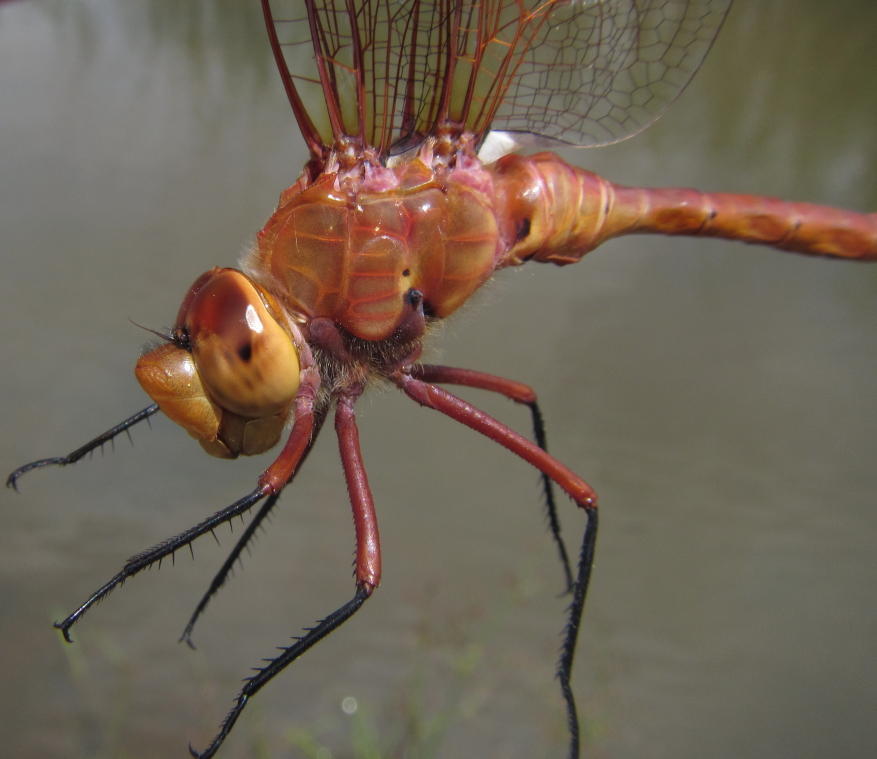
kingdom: Animalia
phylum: Arthropoda
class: Insecta
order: Odonata
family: Aeshnidae
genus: Anax
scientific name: Anax speratus
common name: Orange emperor
